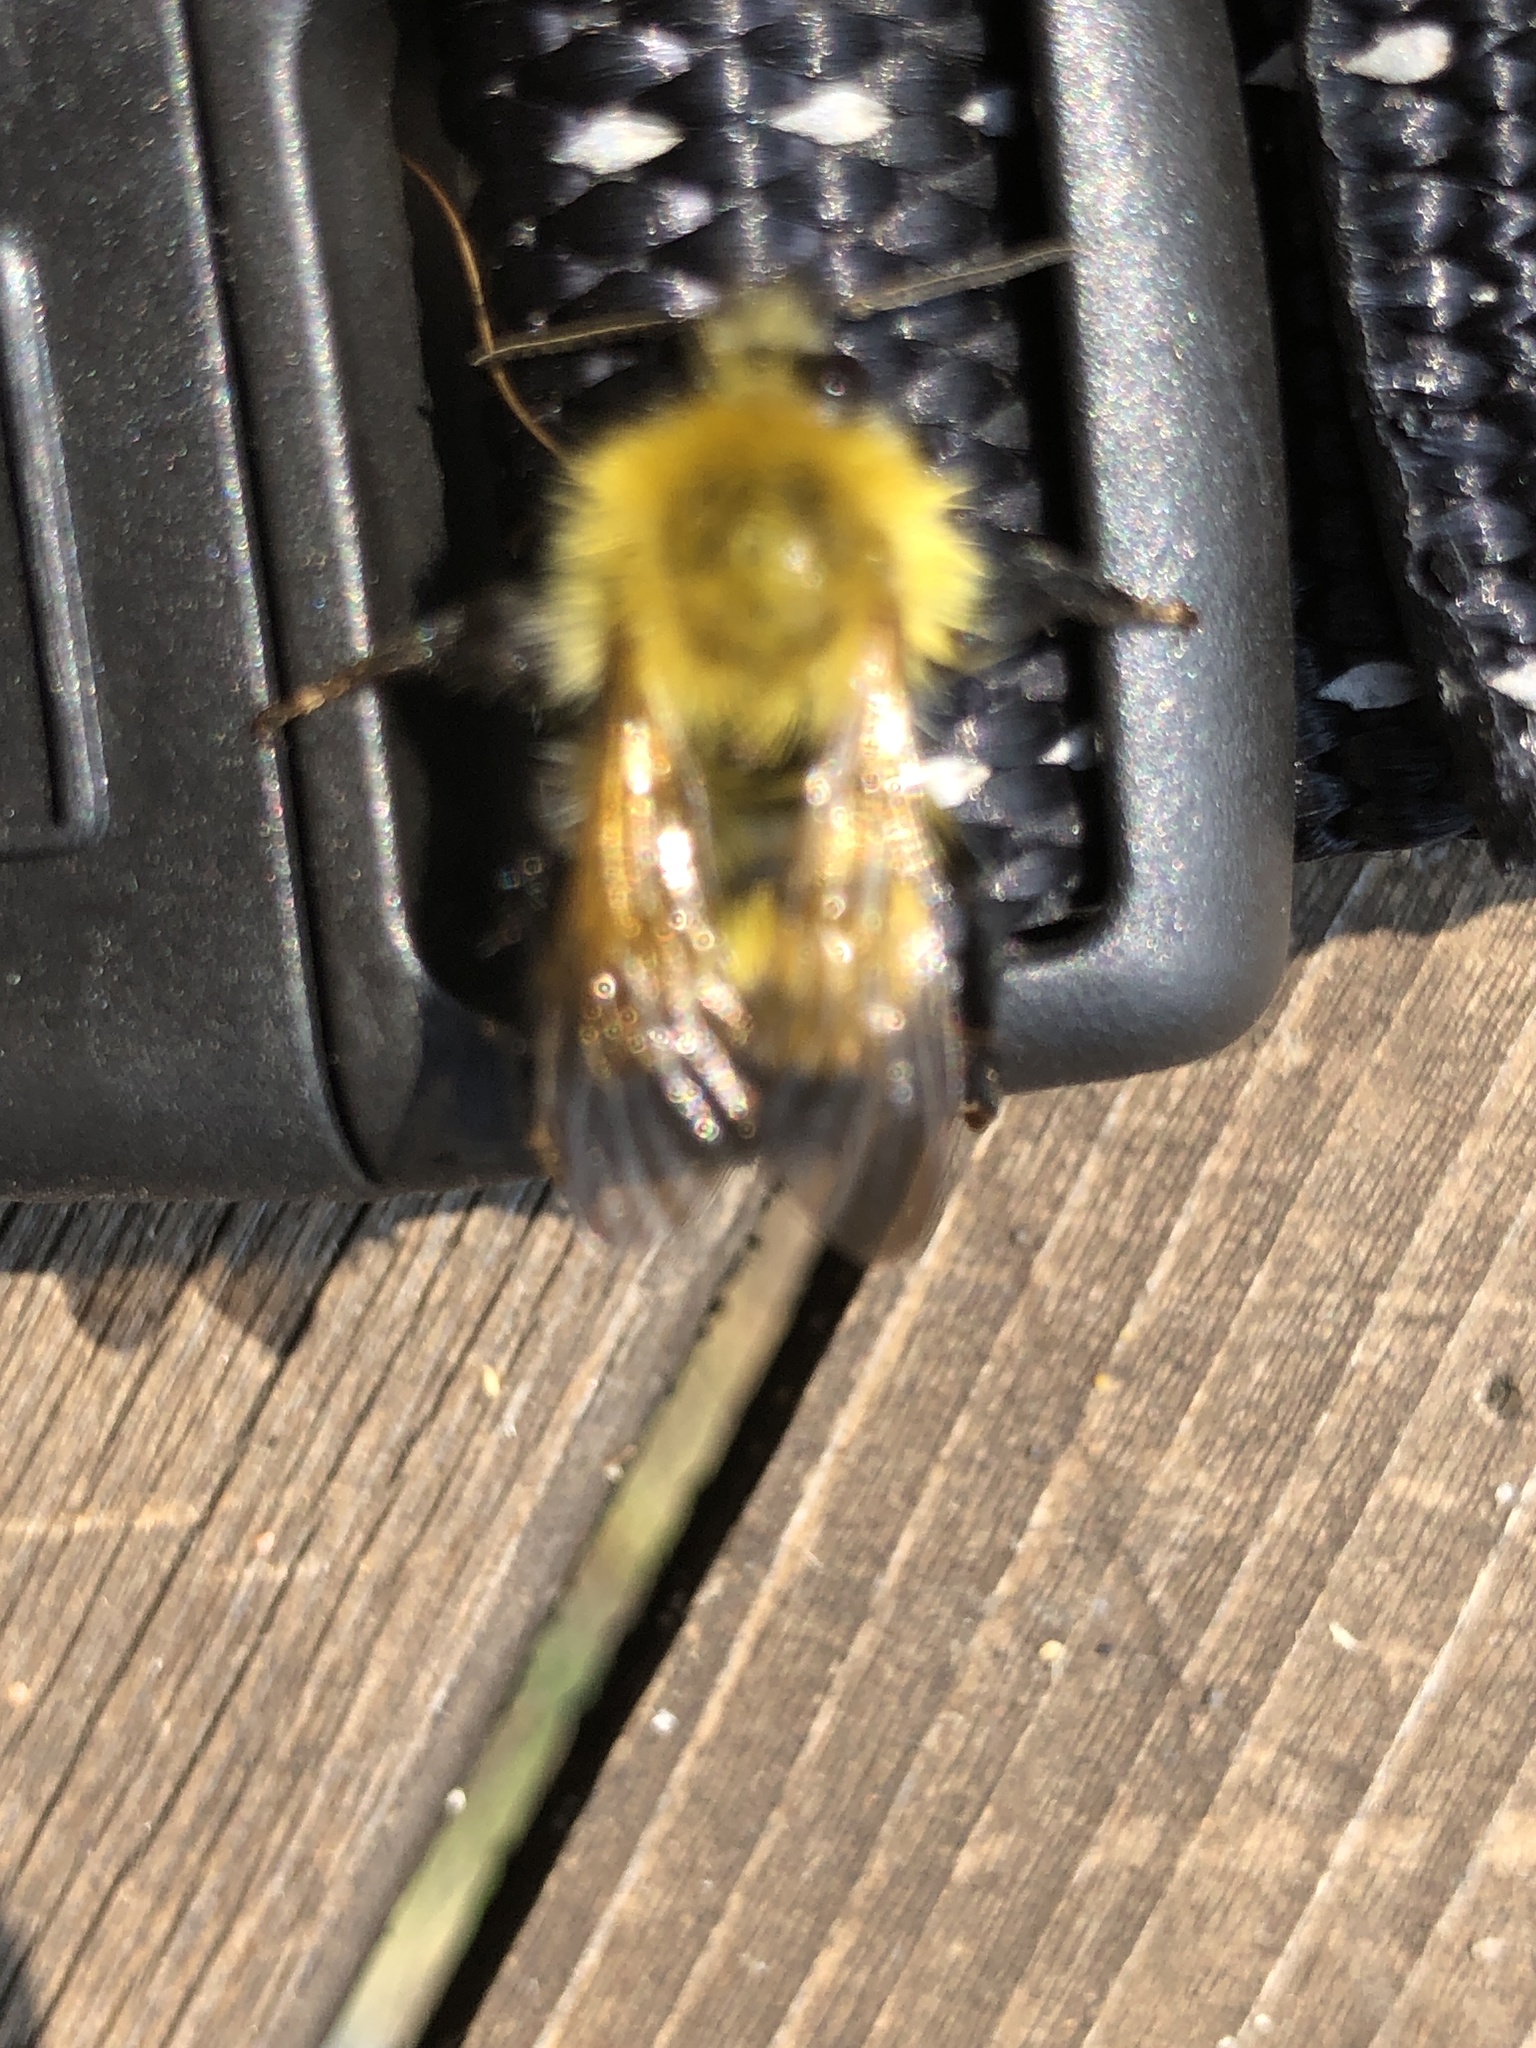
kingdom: Animalia
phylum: Arthropoda
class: Insecta
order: Hymenoptera
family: Apidae
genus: Bombus
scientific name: Bombus perplexus
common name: Confusing bumble bee
